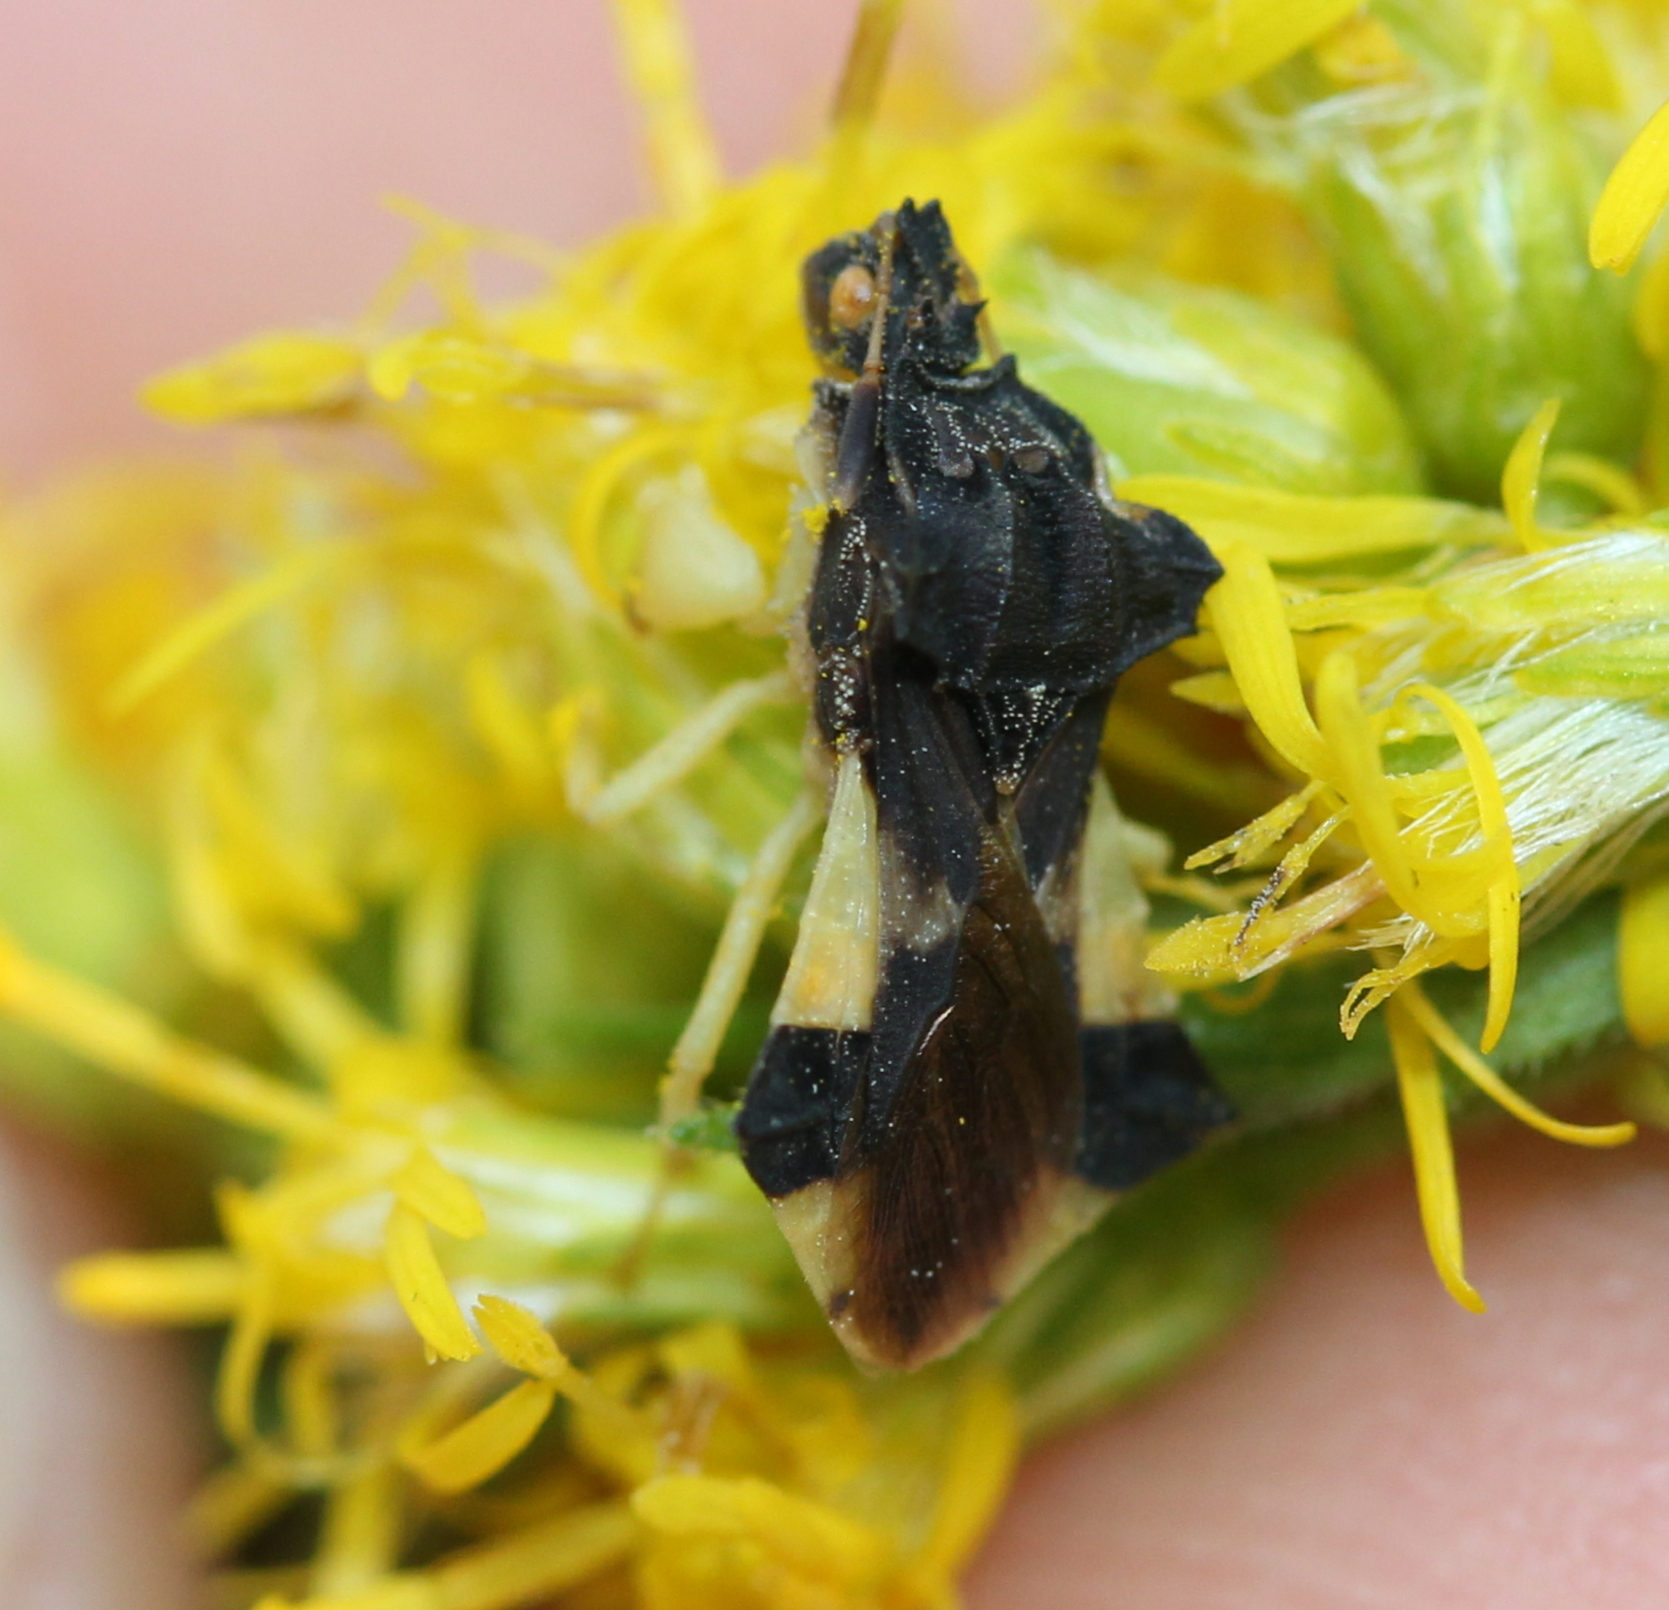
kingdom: Animalia
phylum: Arthropoda
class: Insecta
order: Hemiptera
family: Reduviidae
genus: Phymata
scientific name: Phymata pennsylvanica
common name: Pennsylvania ambush bug
